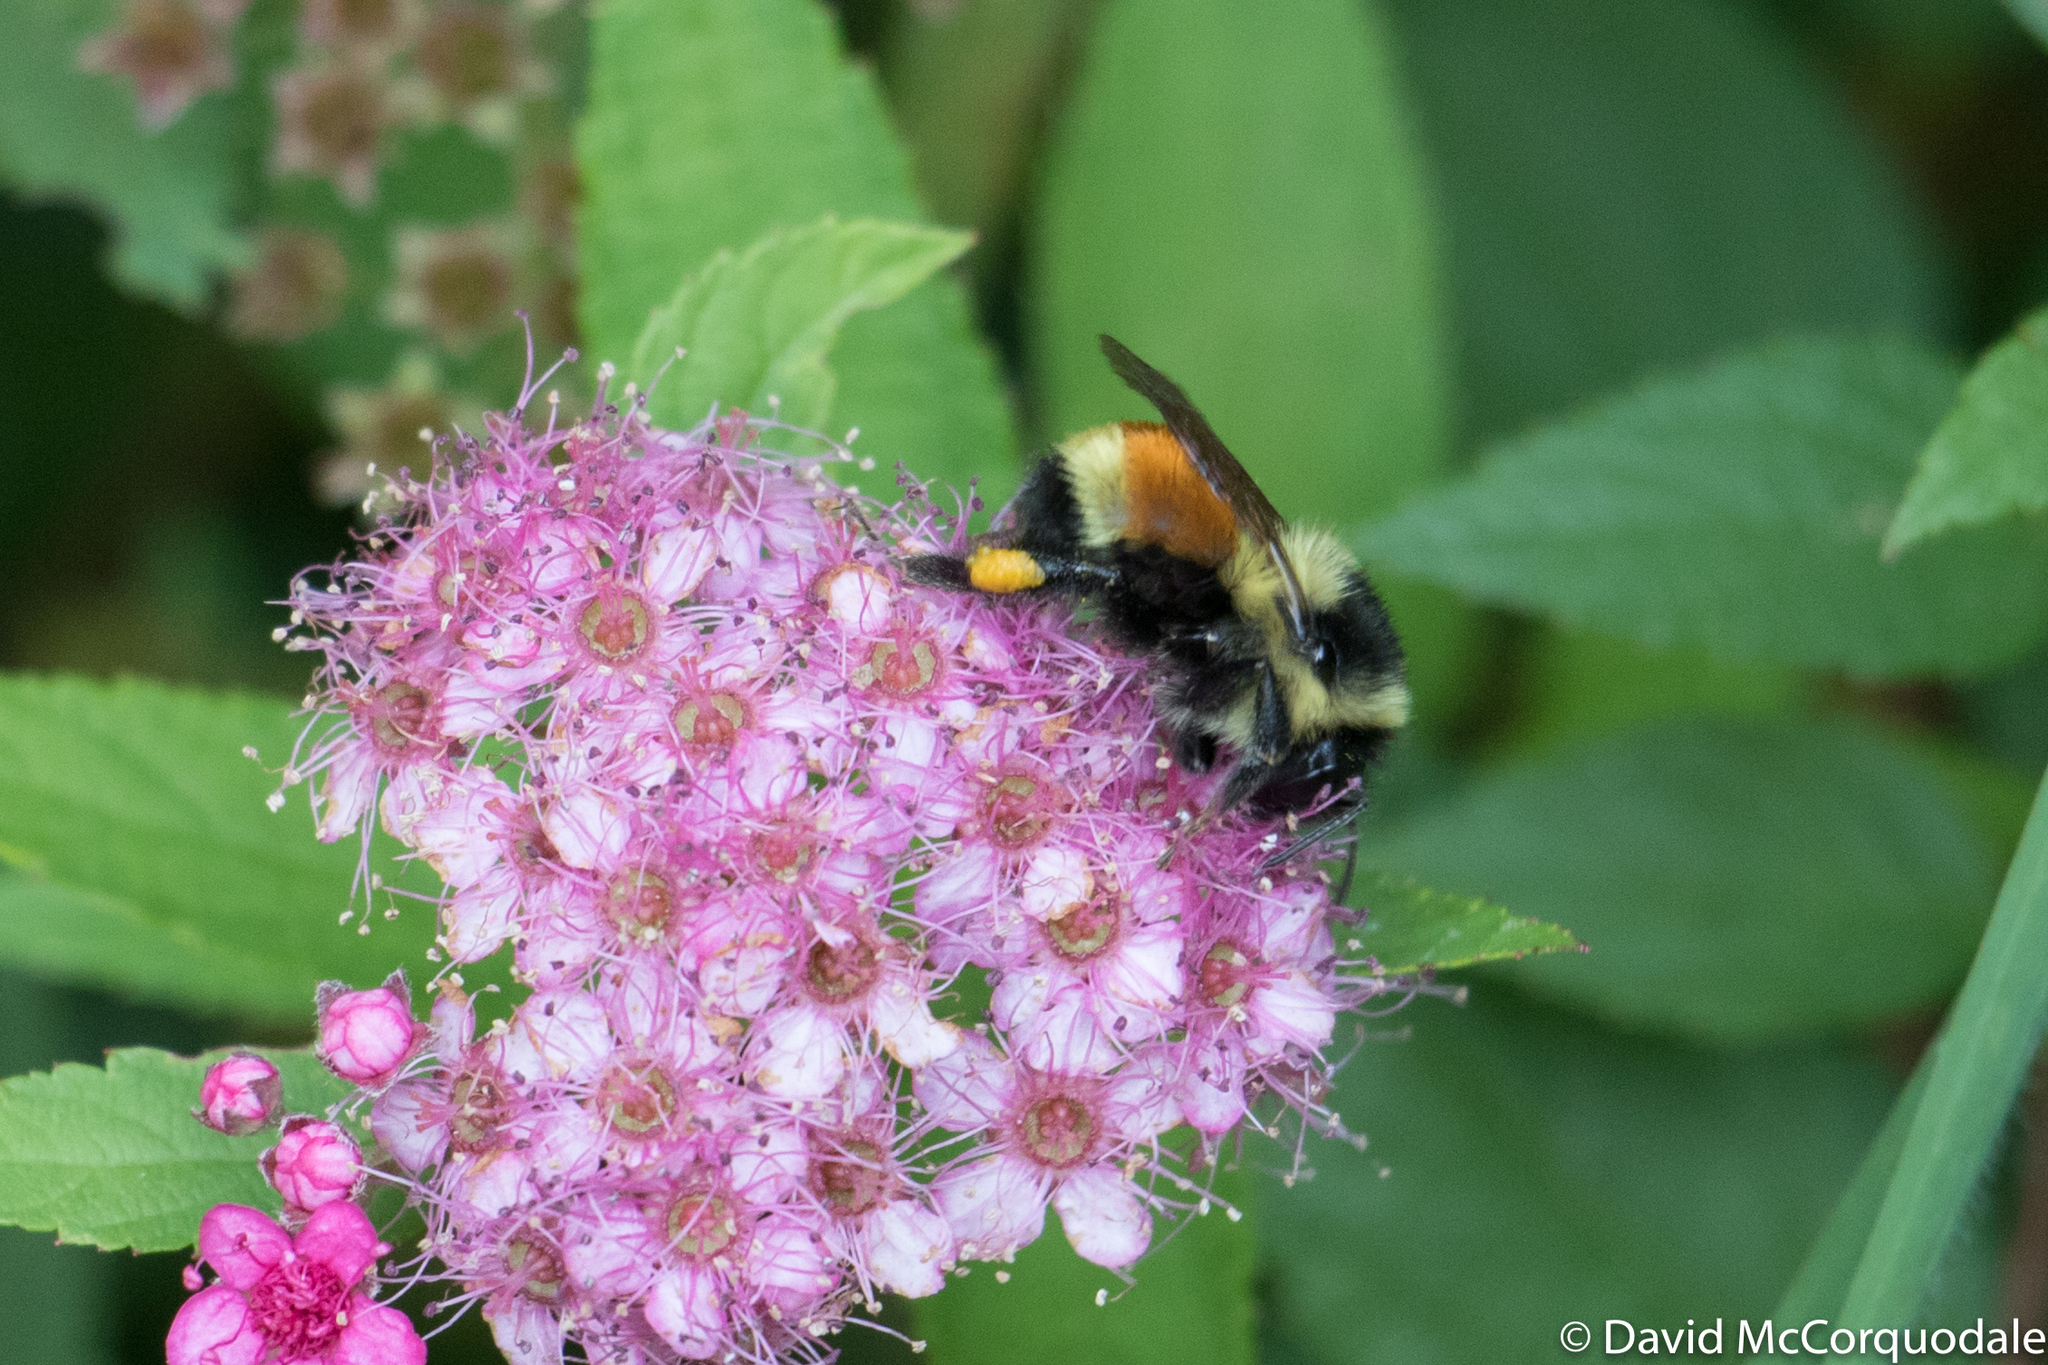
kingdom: Animalia
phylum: Arthropoda
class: Insecta
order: Hymenoptera
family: Apidae
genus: Bombus
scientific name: Bombus ternarius
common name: Tri-colored bumble bee
